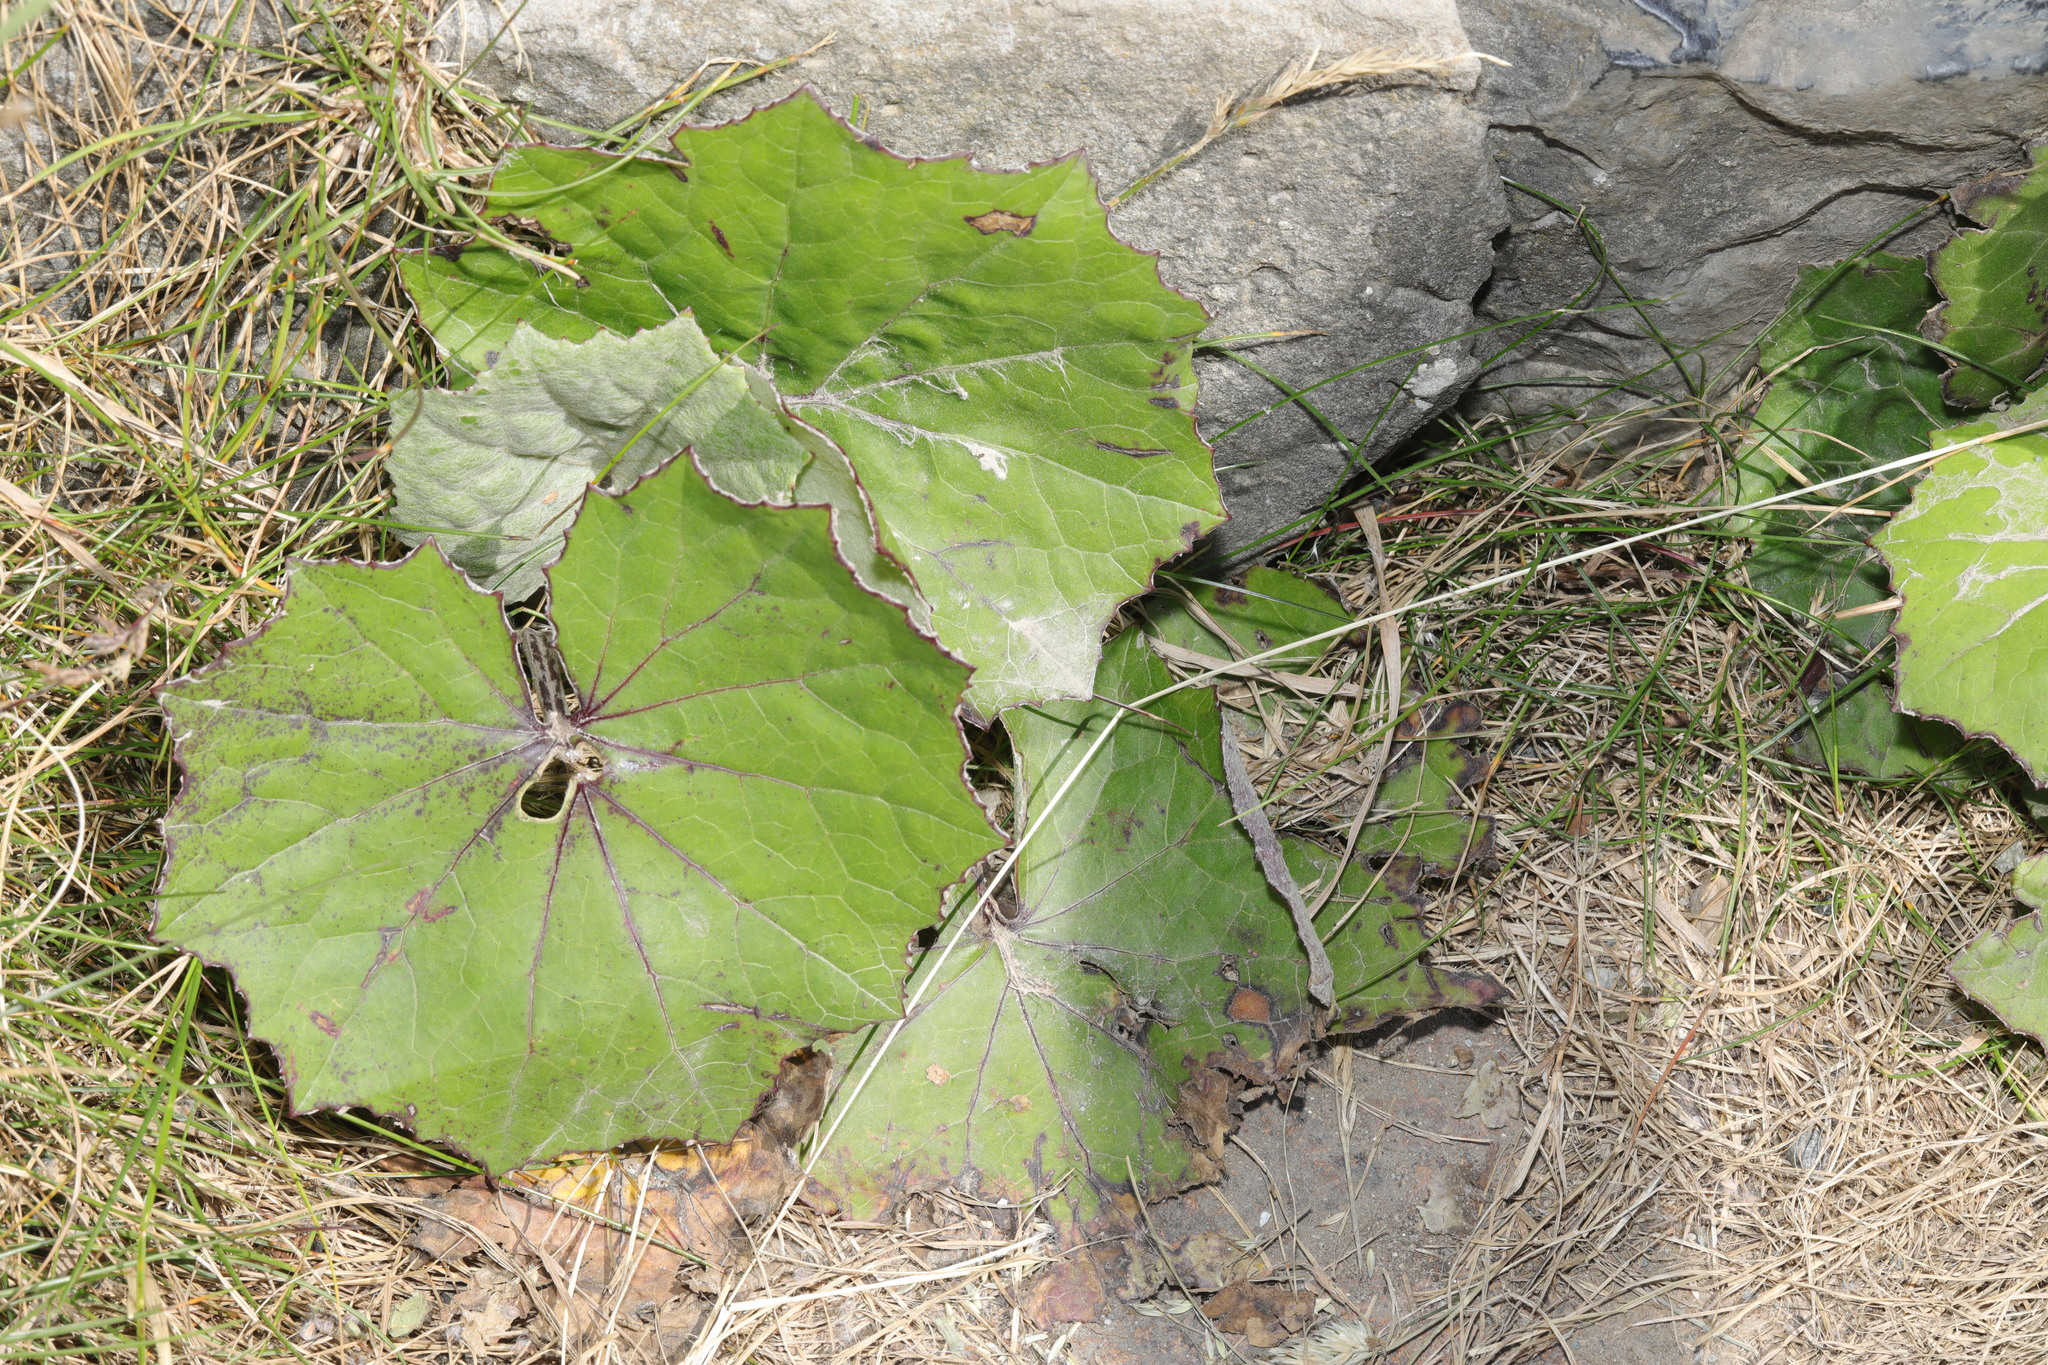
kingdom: Plantae
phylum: Tracheophyta
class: Magnoliopsida
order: Asterales
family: Asteraceae
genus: Tussilago
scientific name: Tussilago farfara
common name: Coltsfoot
